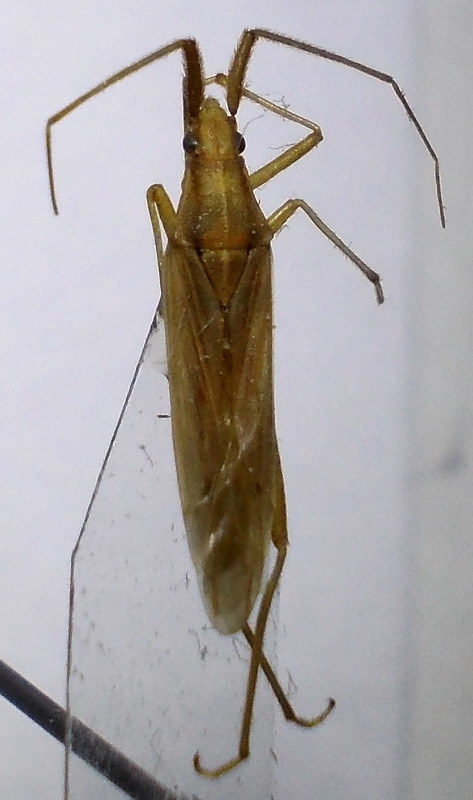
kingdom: Animalia
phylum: Arthropoda
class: Insecta
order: Hemiptera
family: Miridae
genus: Stenodema
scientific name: Stenodema laevigata
